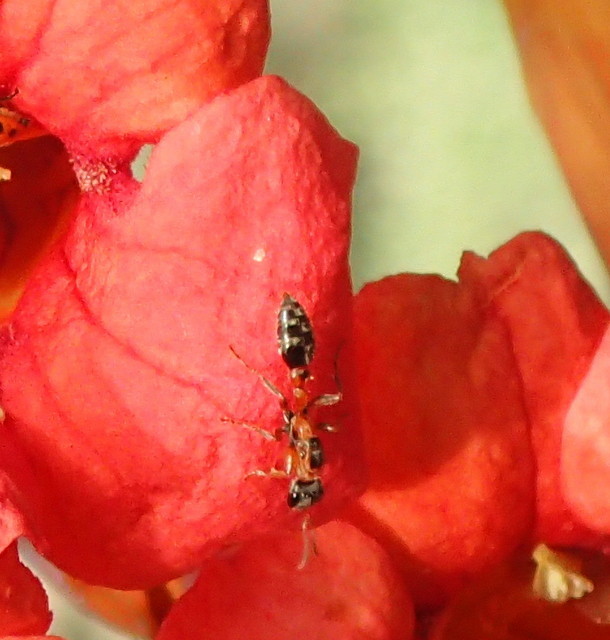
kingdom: Animalia
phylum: Arthropoda
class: Insecta
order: Hymenoptera
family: Formicidae
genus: Pseudomyrmex
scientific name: Pseudomyrmex gracilis
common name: Graceful twig ant
